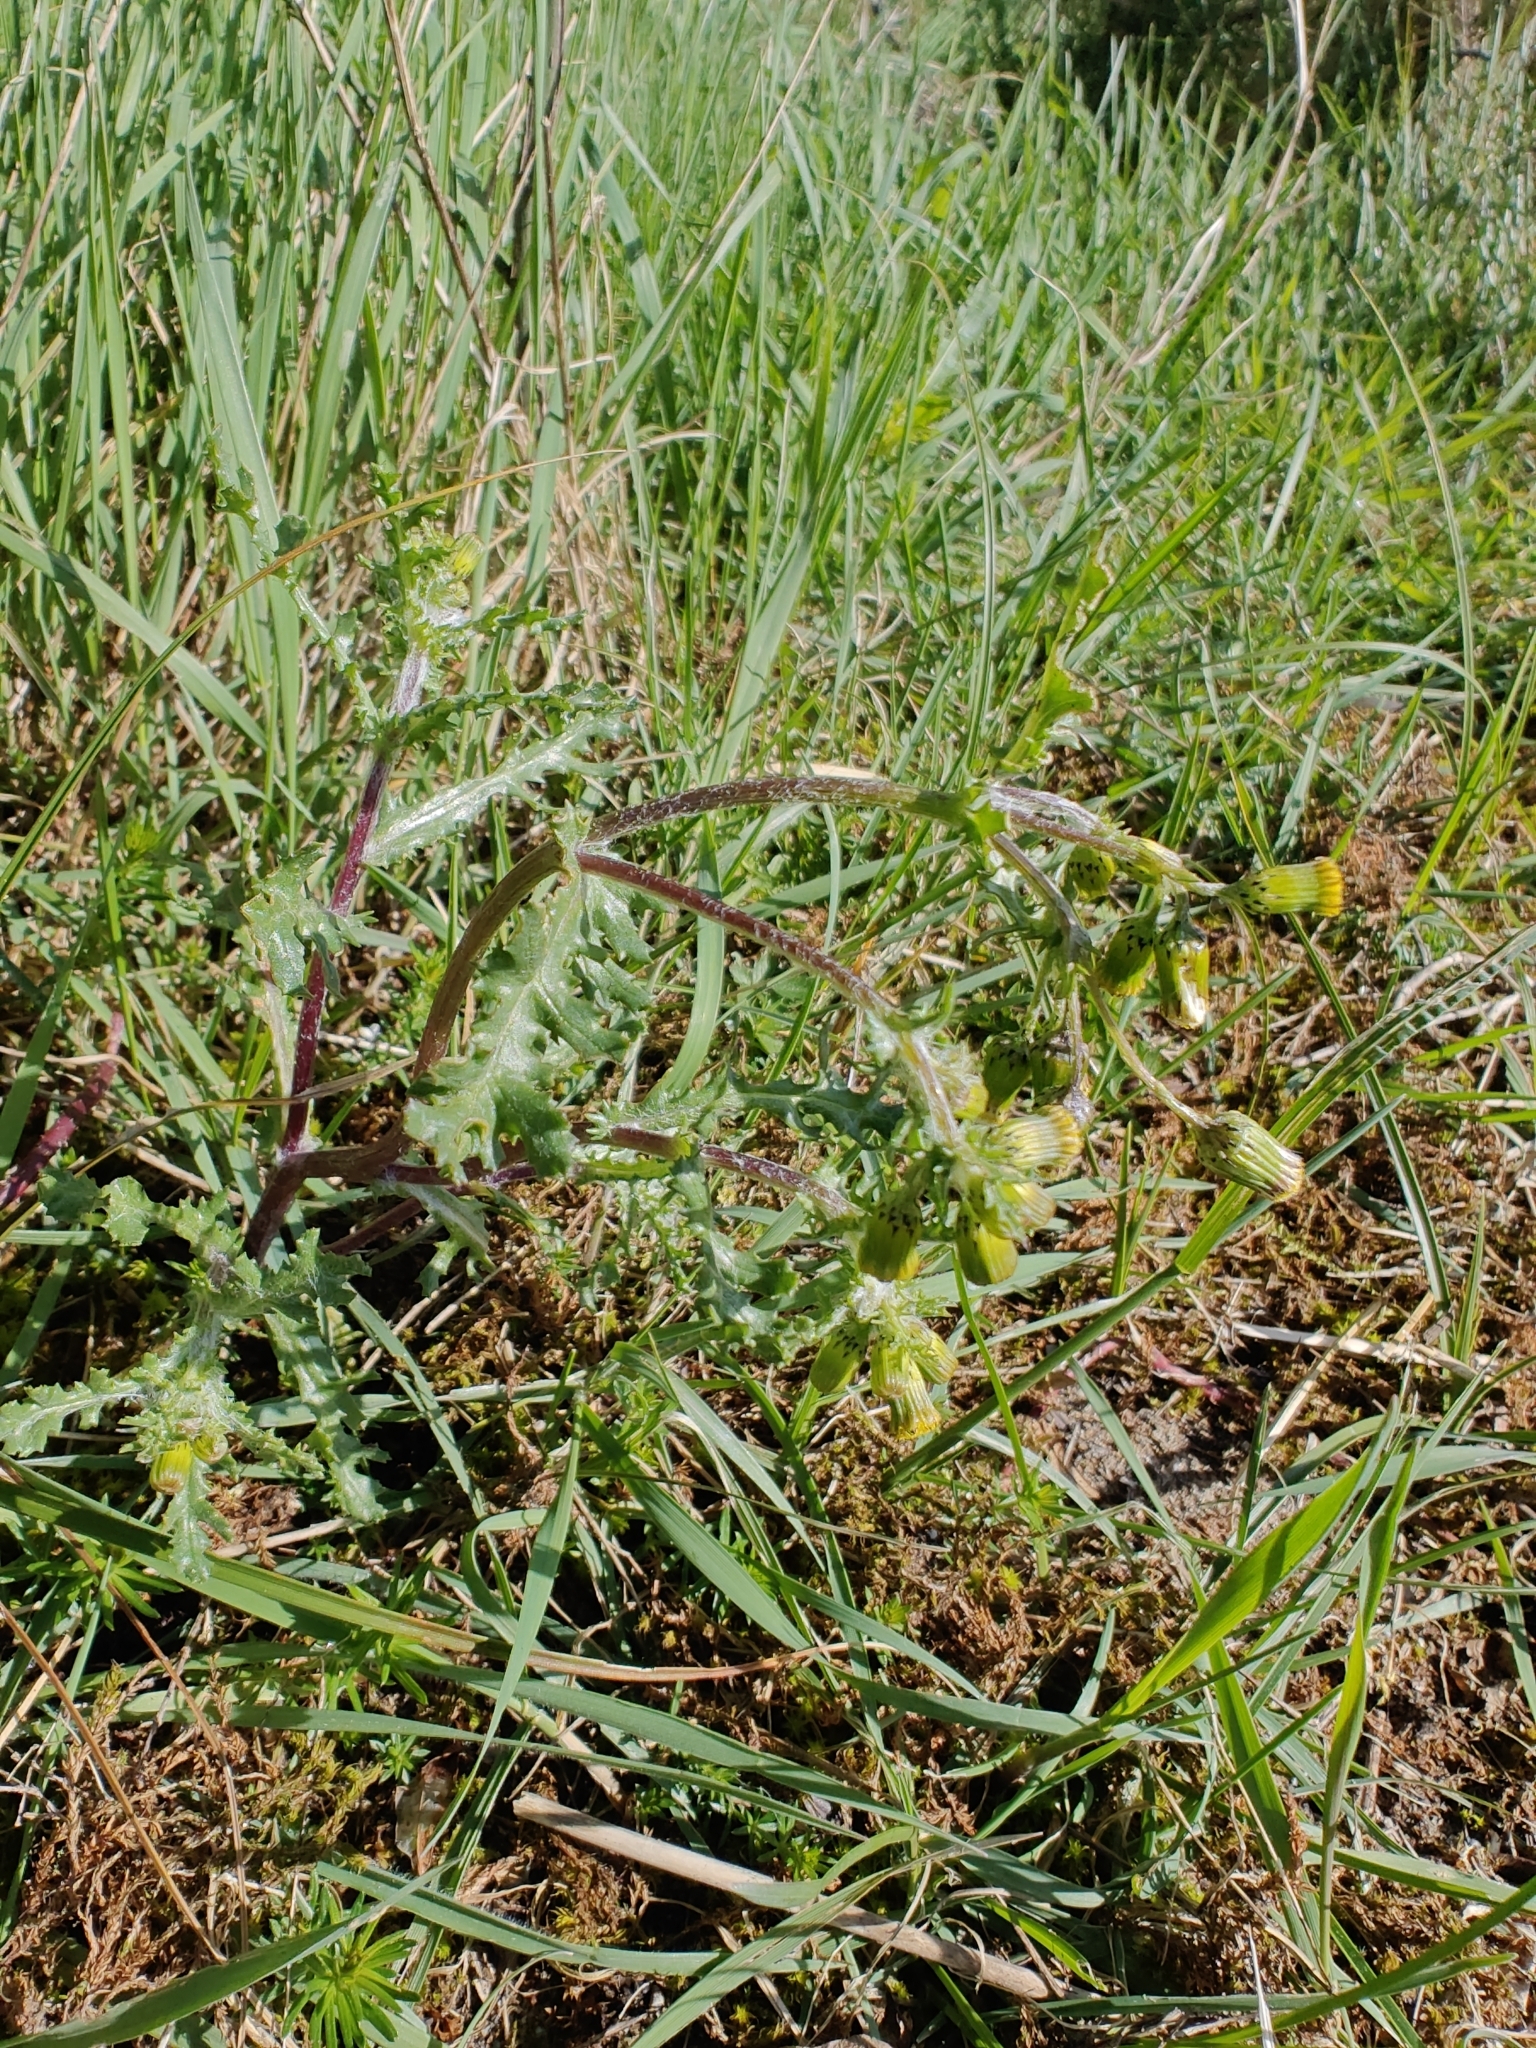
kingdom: Plantae
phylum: Tracheophyta
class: Magnoliopsida
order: Asterales
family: Asteraceae
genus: Senecio
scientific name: Senecio vulgaris
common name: Old-man-in-the-spring
